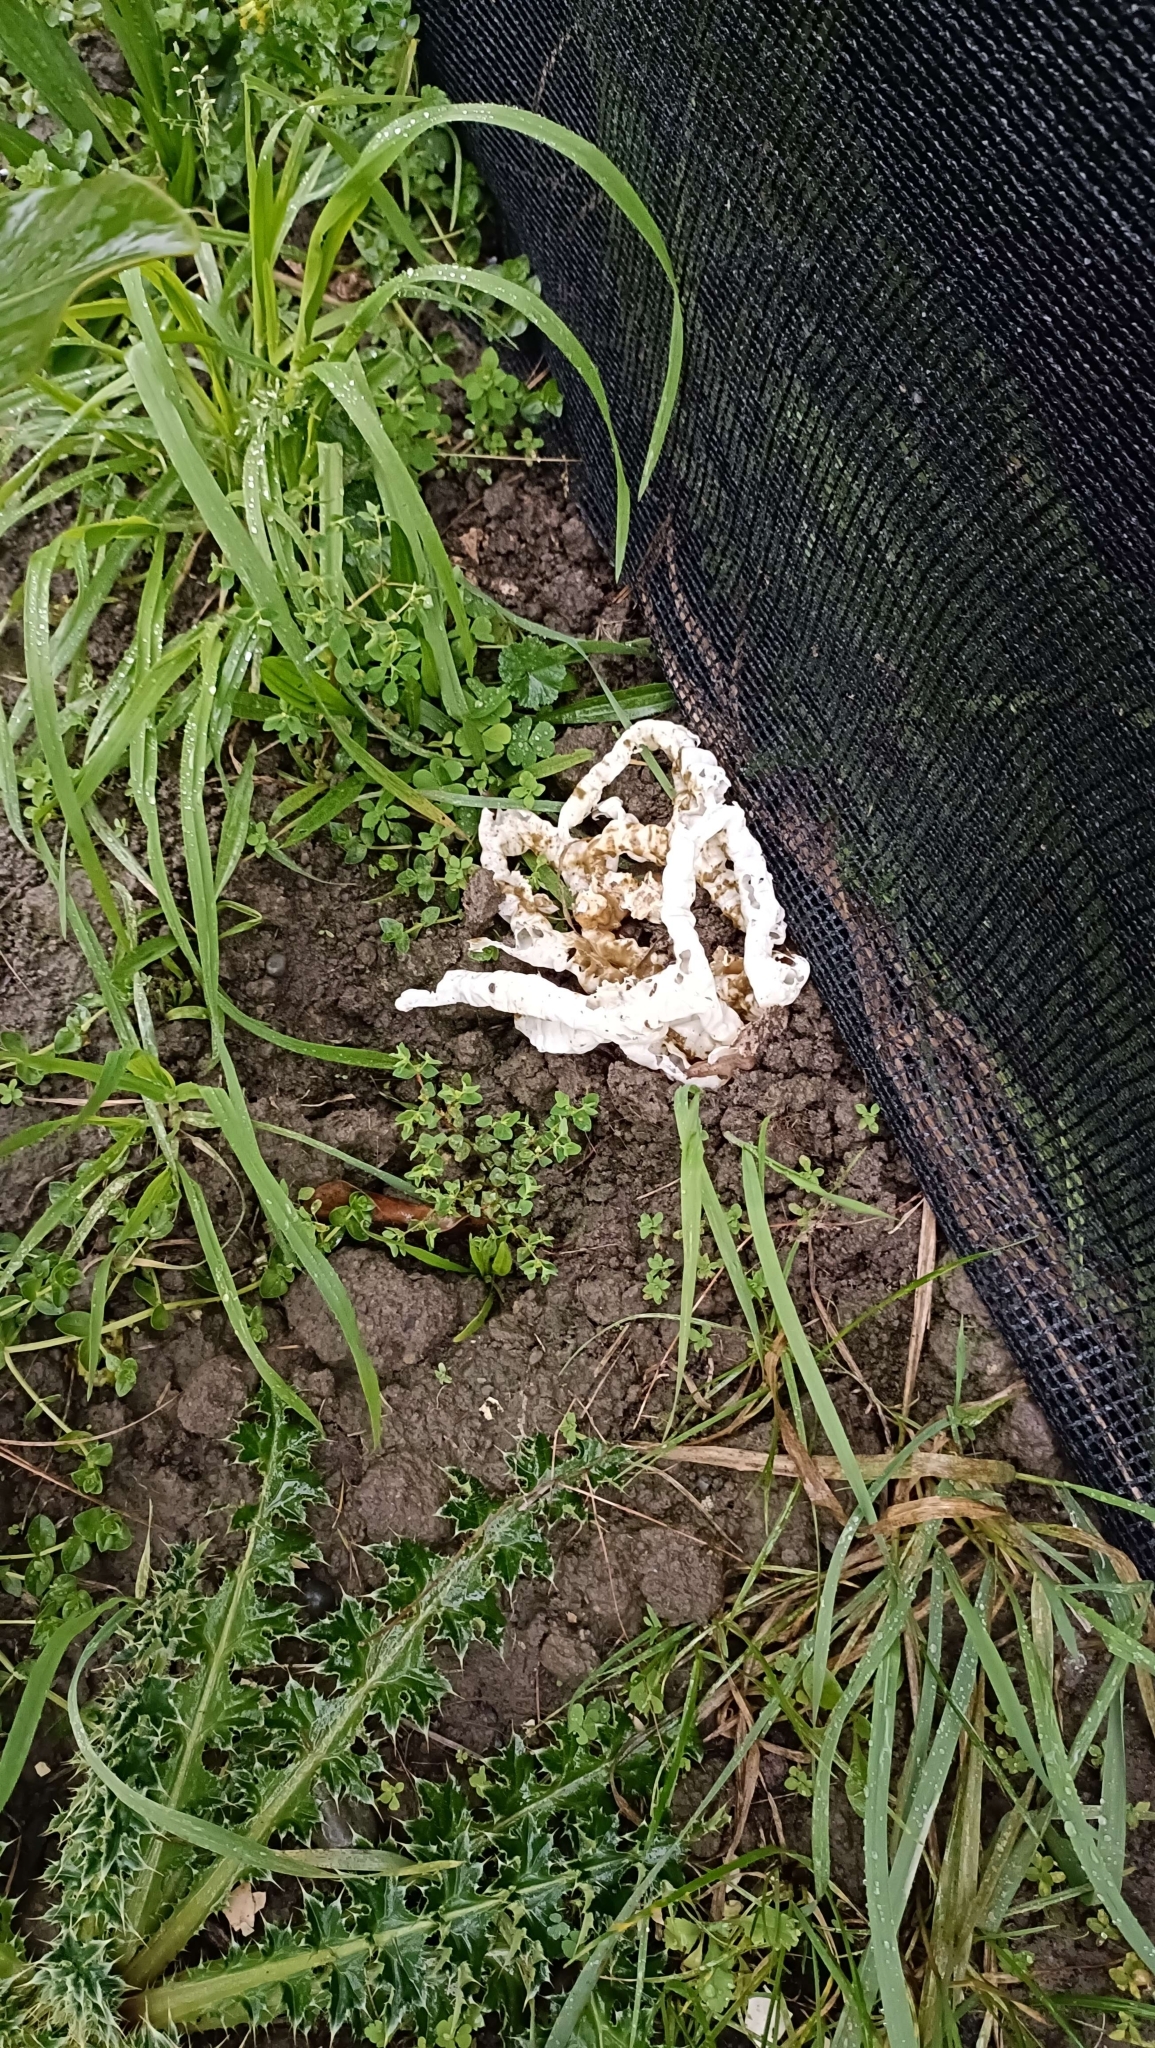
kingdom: Fungi
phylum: Basidiomycota
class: Agaricomycetes
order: Phallales
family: Phallaceae
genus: Ileodictyon
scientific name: Ileodictyon cibarium
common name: Basket fungus
